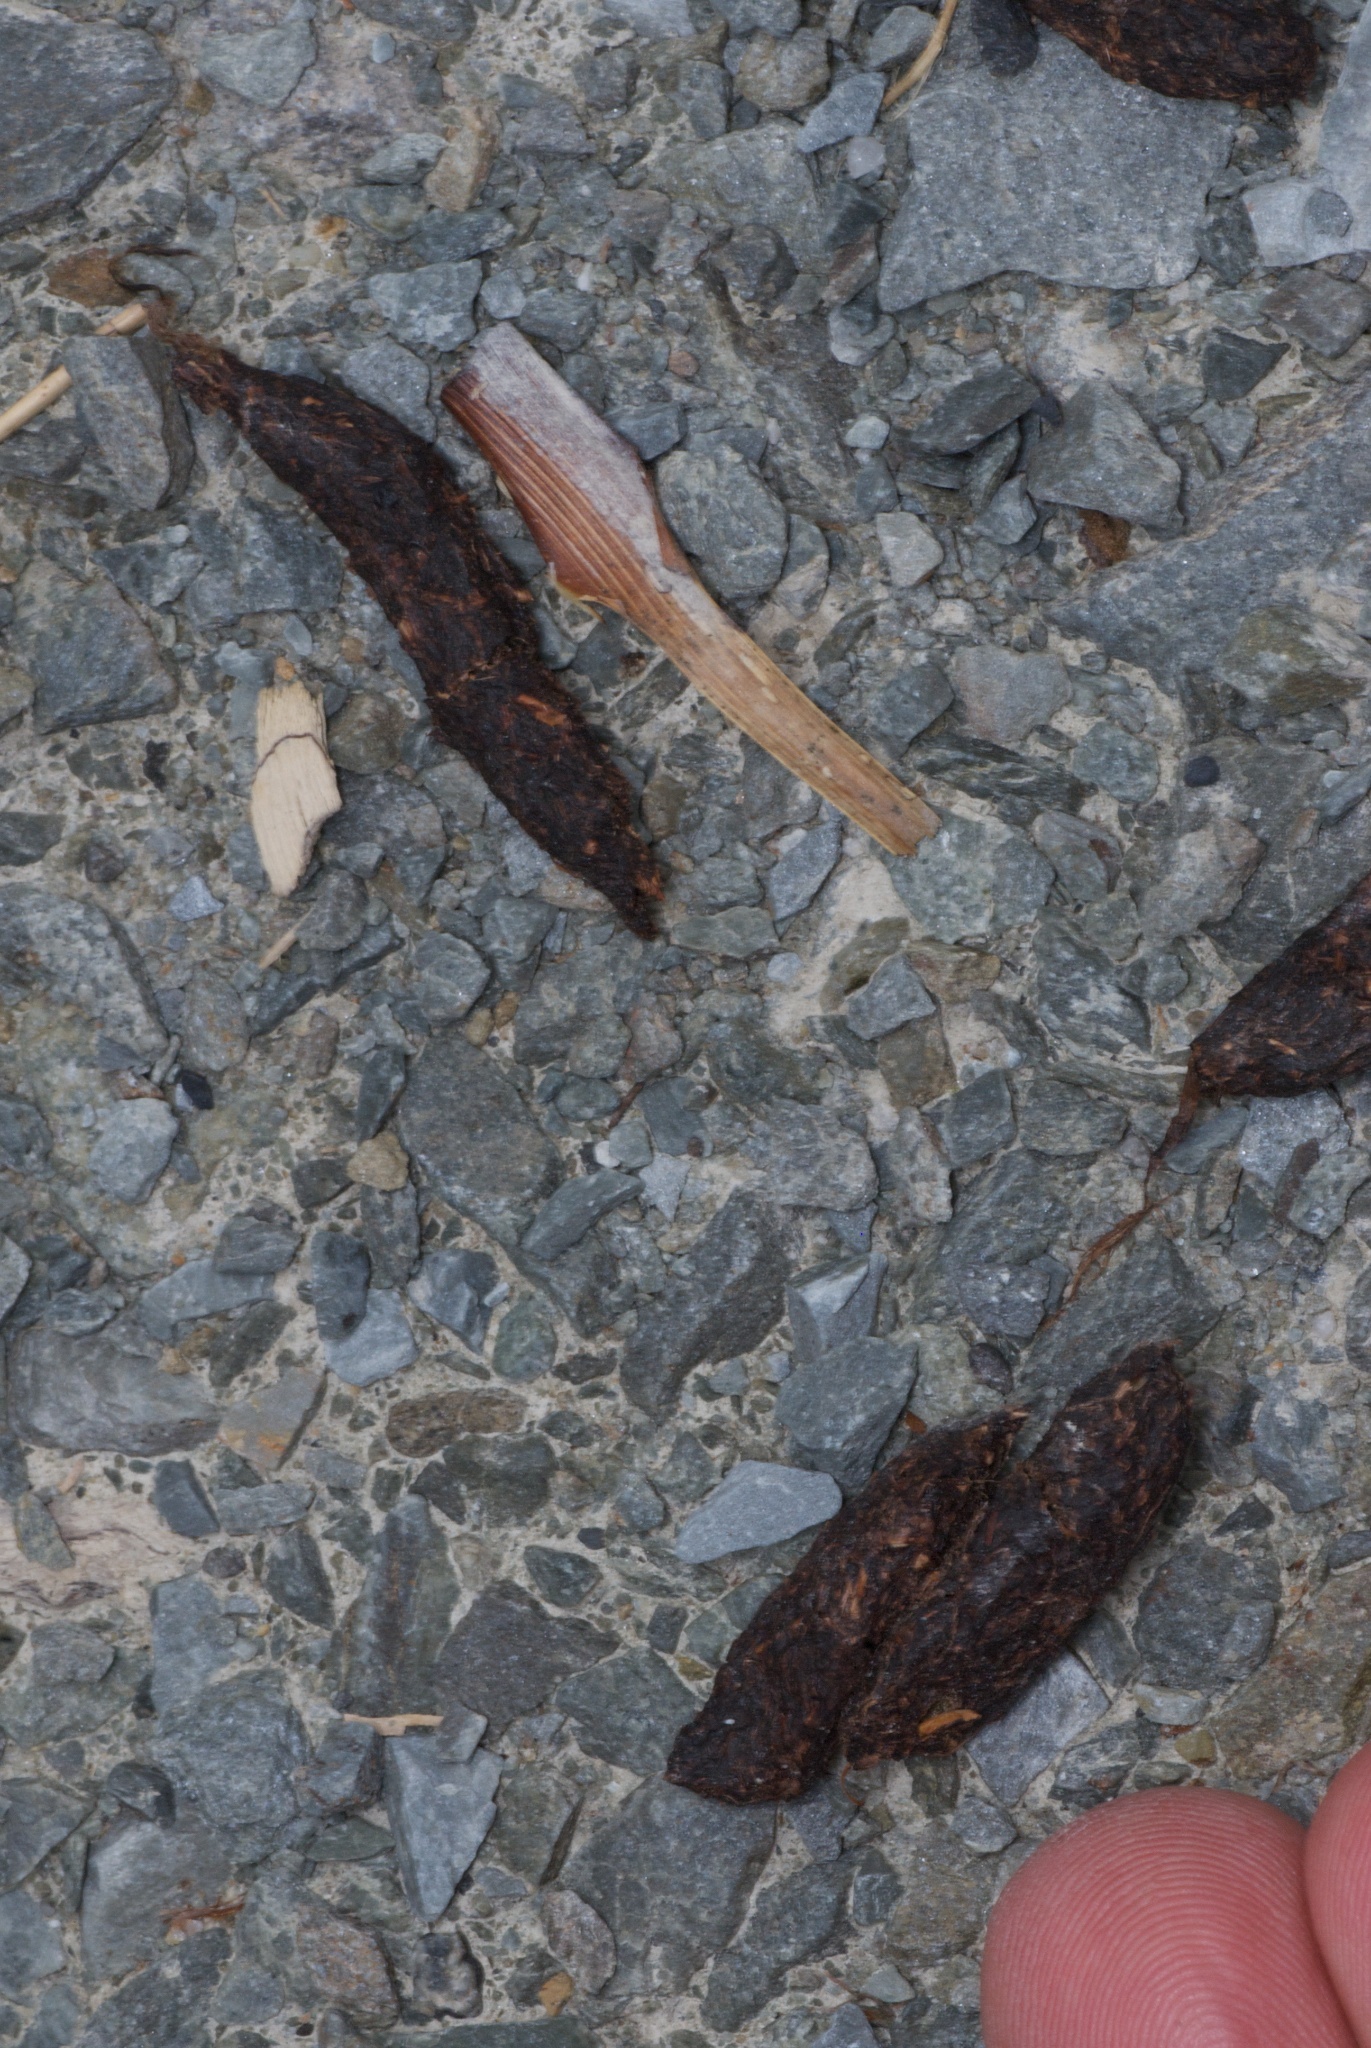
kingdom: Animalia
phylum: Chordata
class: Mammalia
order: Diprotodontia
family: Phalangeridae
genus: Trichosurus
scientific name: Trichosurus vulpecula
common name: Common brushtail
